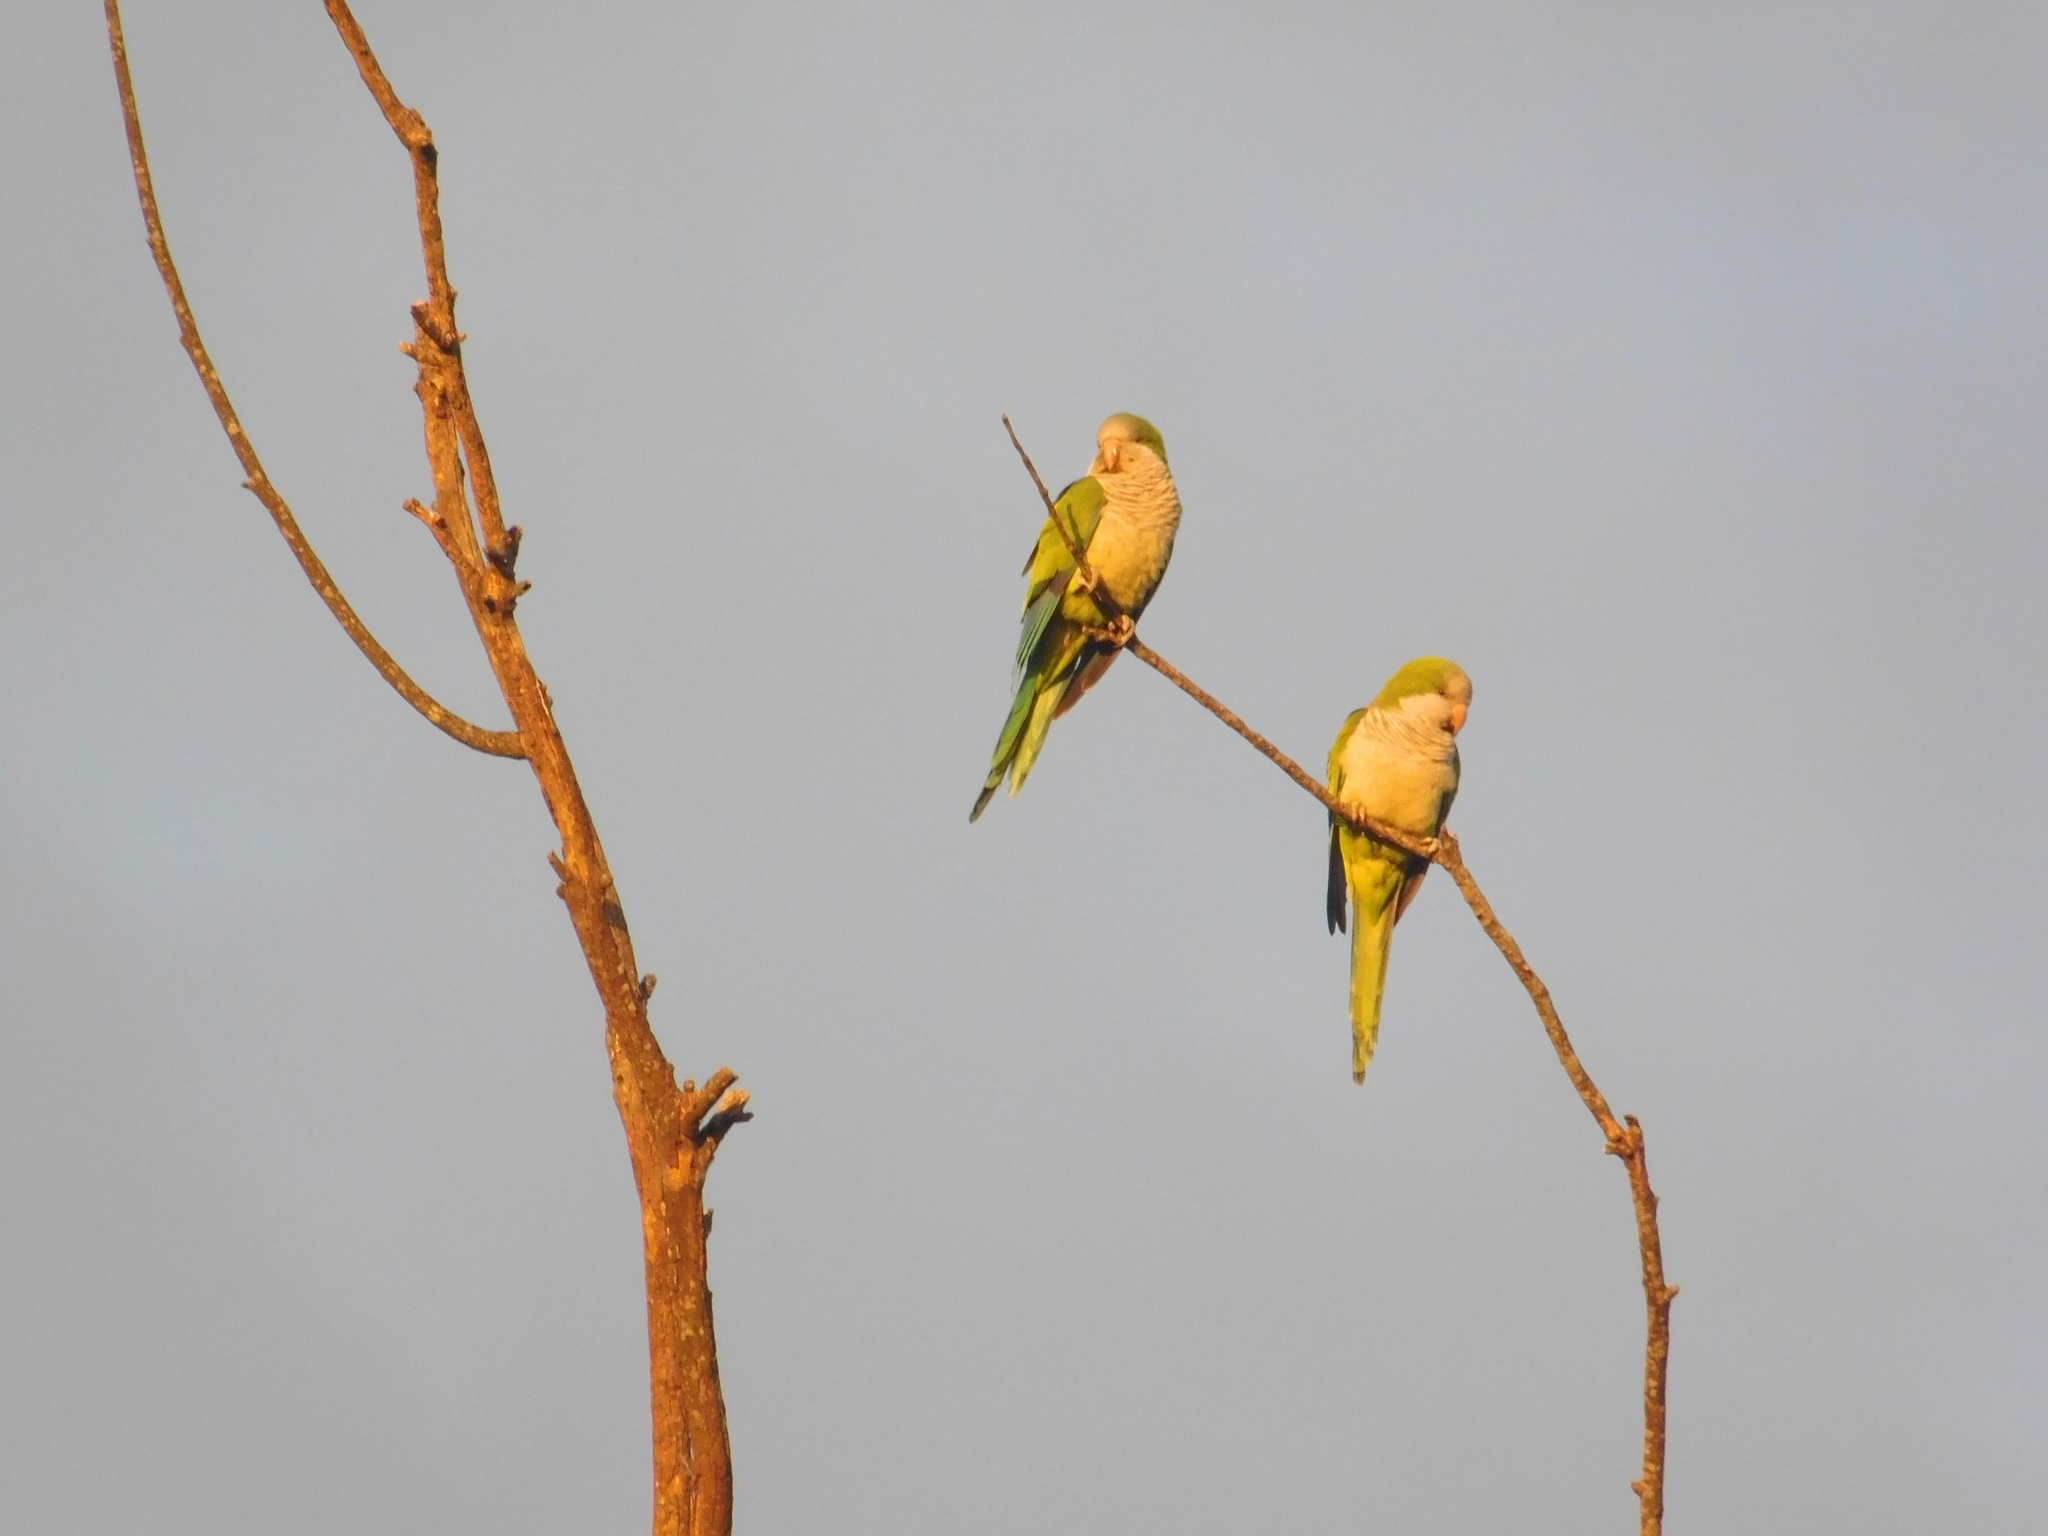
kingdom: Animalia
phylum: Chordata
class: Aves
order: Psittaciformes
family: Psittacidae
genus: Myiopsitta
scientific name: Myiopsitta monachus
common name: Monk parakeet
